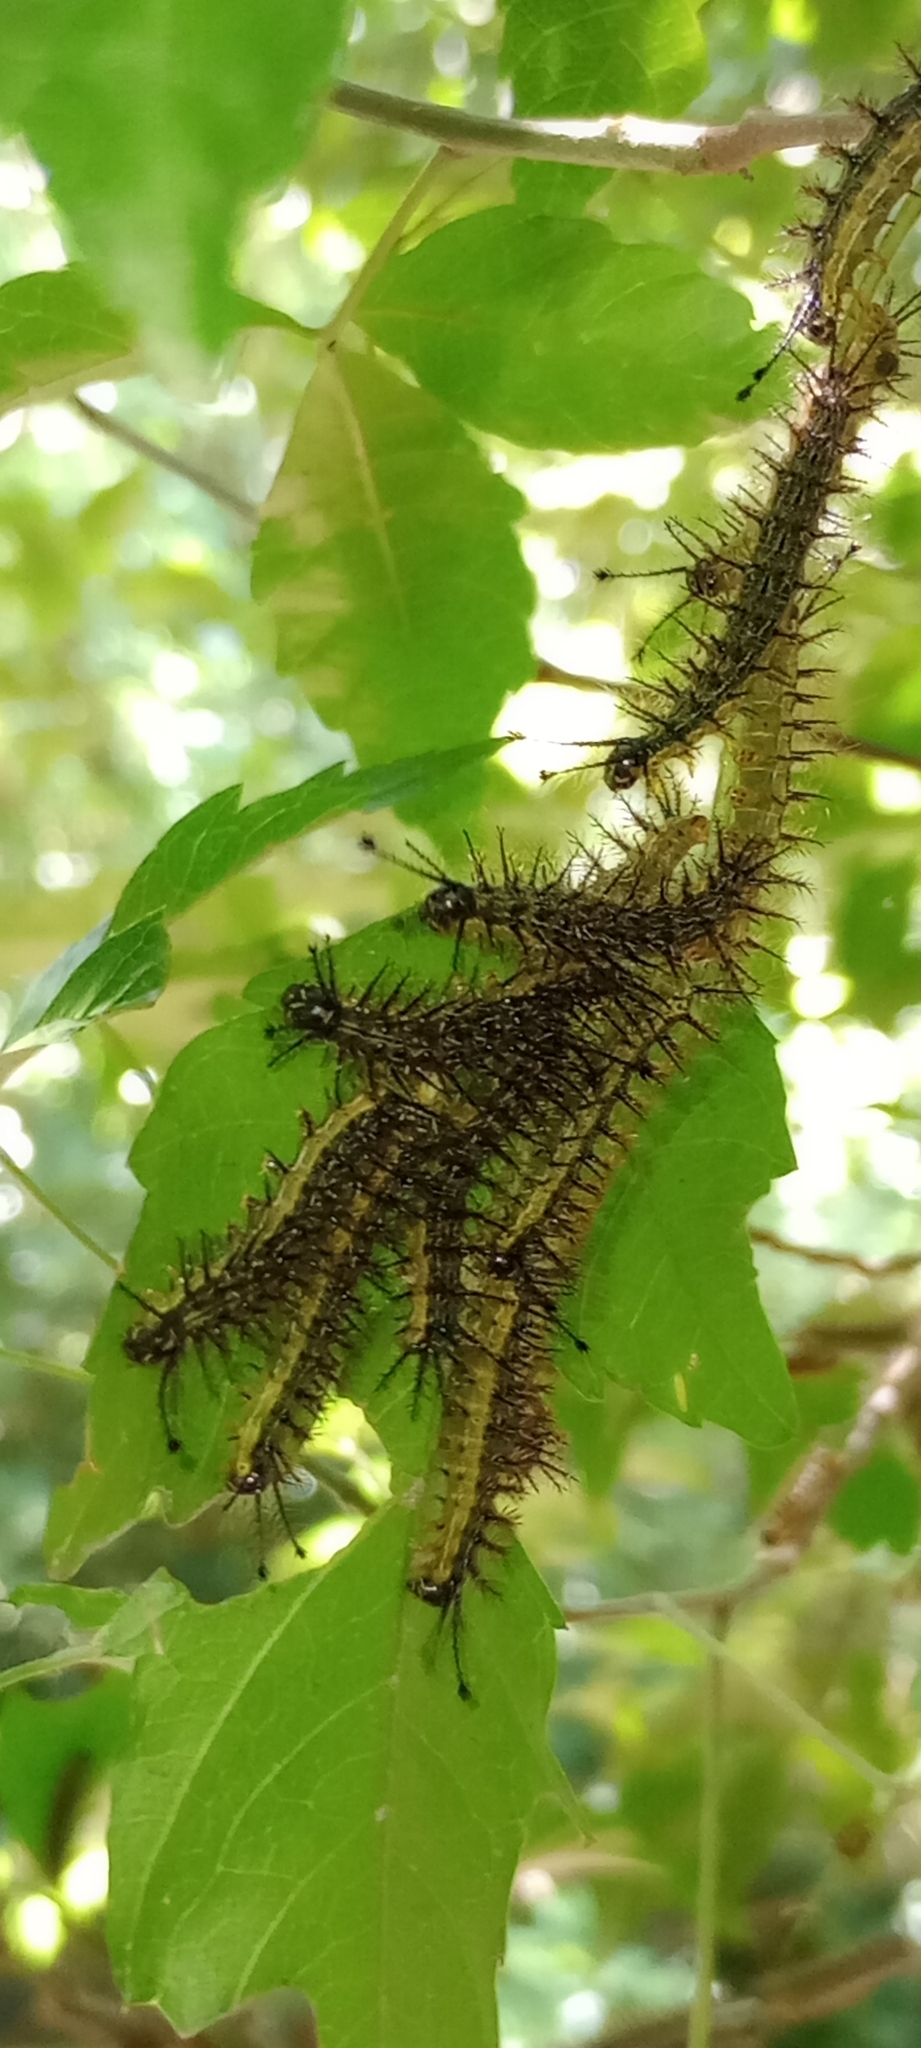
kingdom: Animalia
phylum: Arthropoda
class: Insecta
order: Lepidoptera
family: Saturniidae
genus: Hylesia
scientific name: Hylesia nigricans
